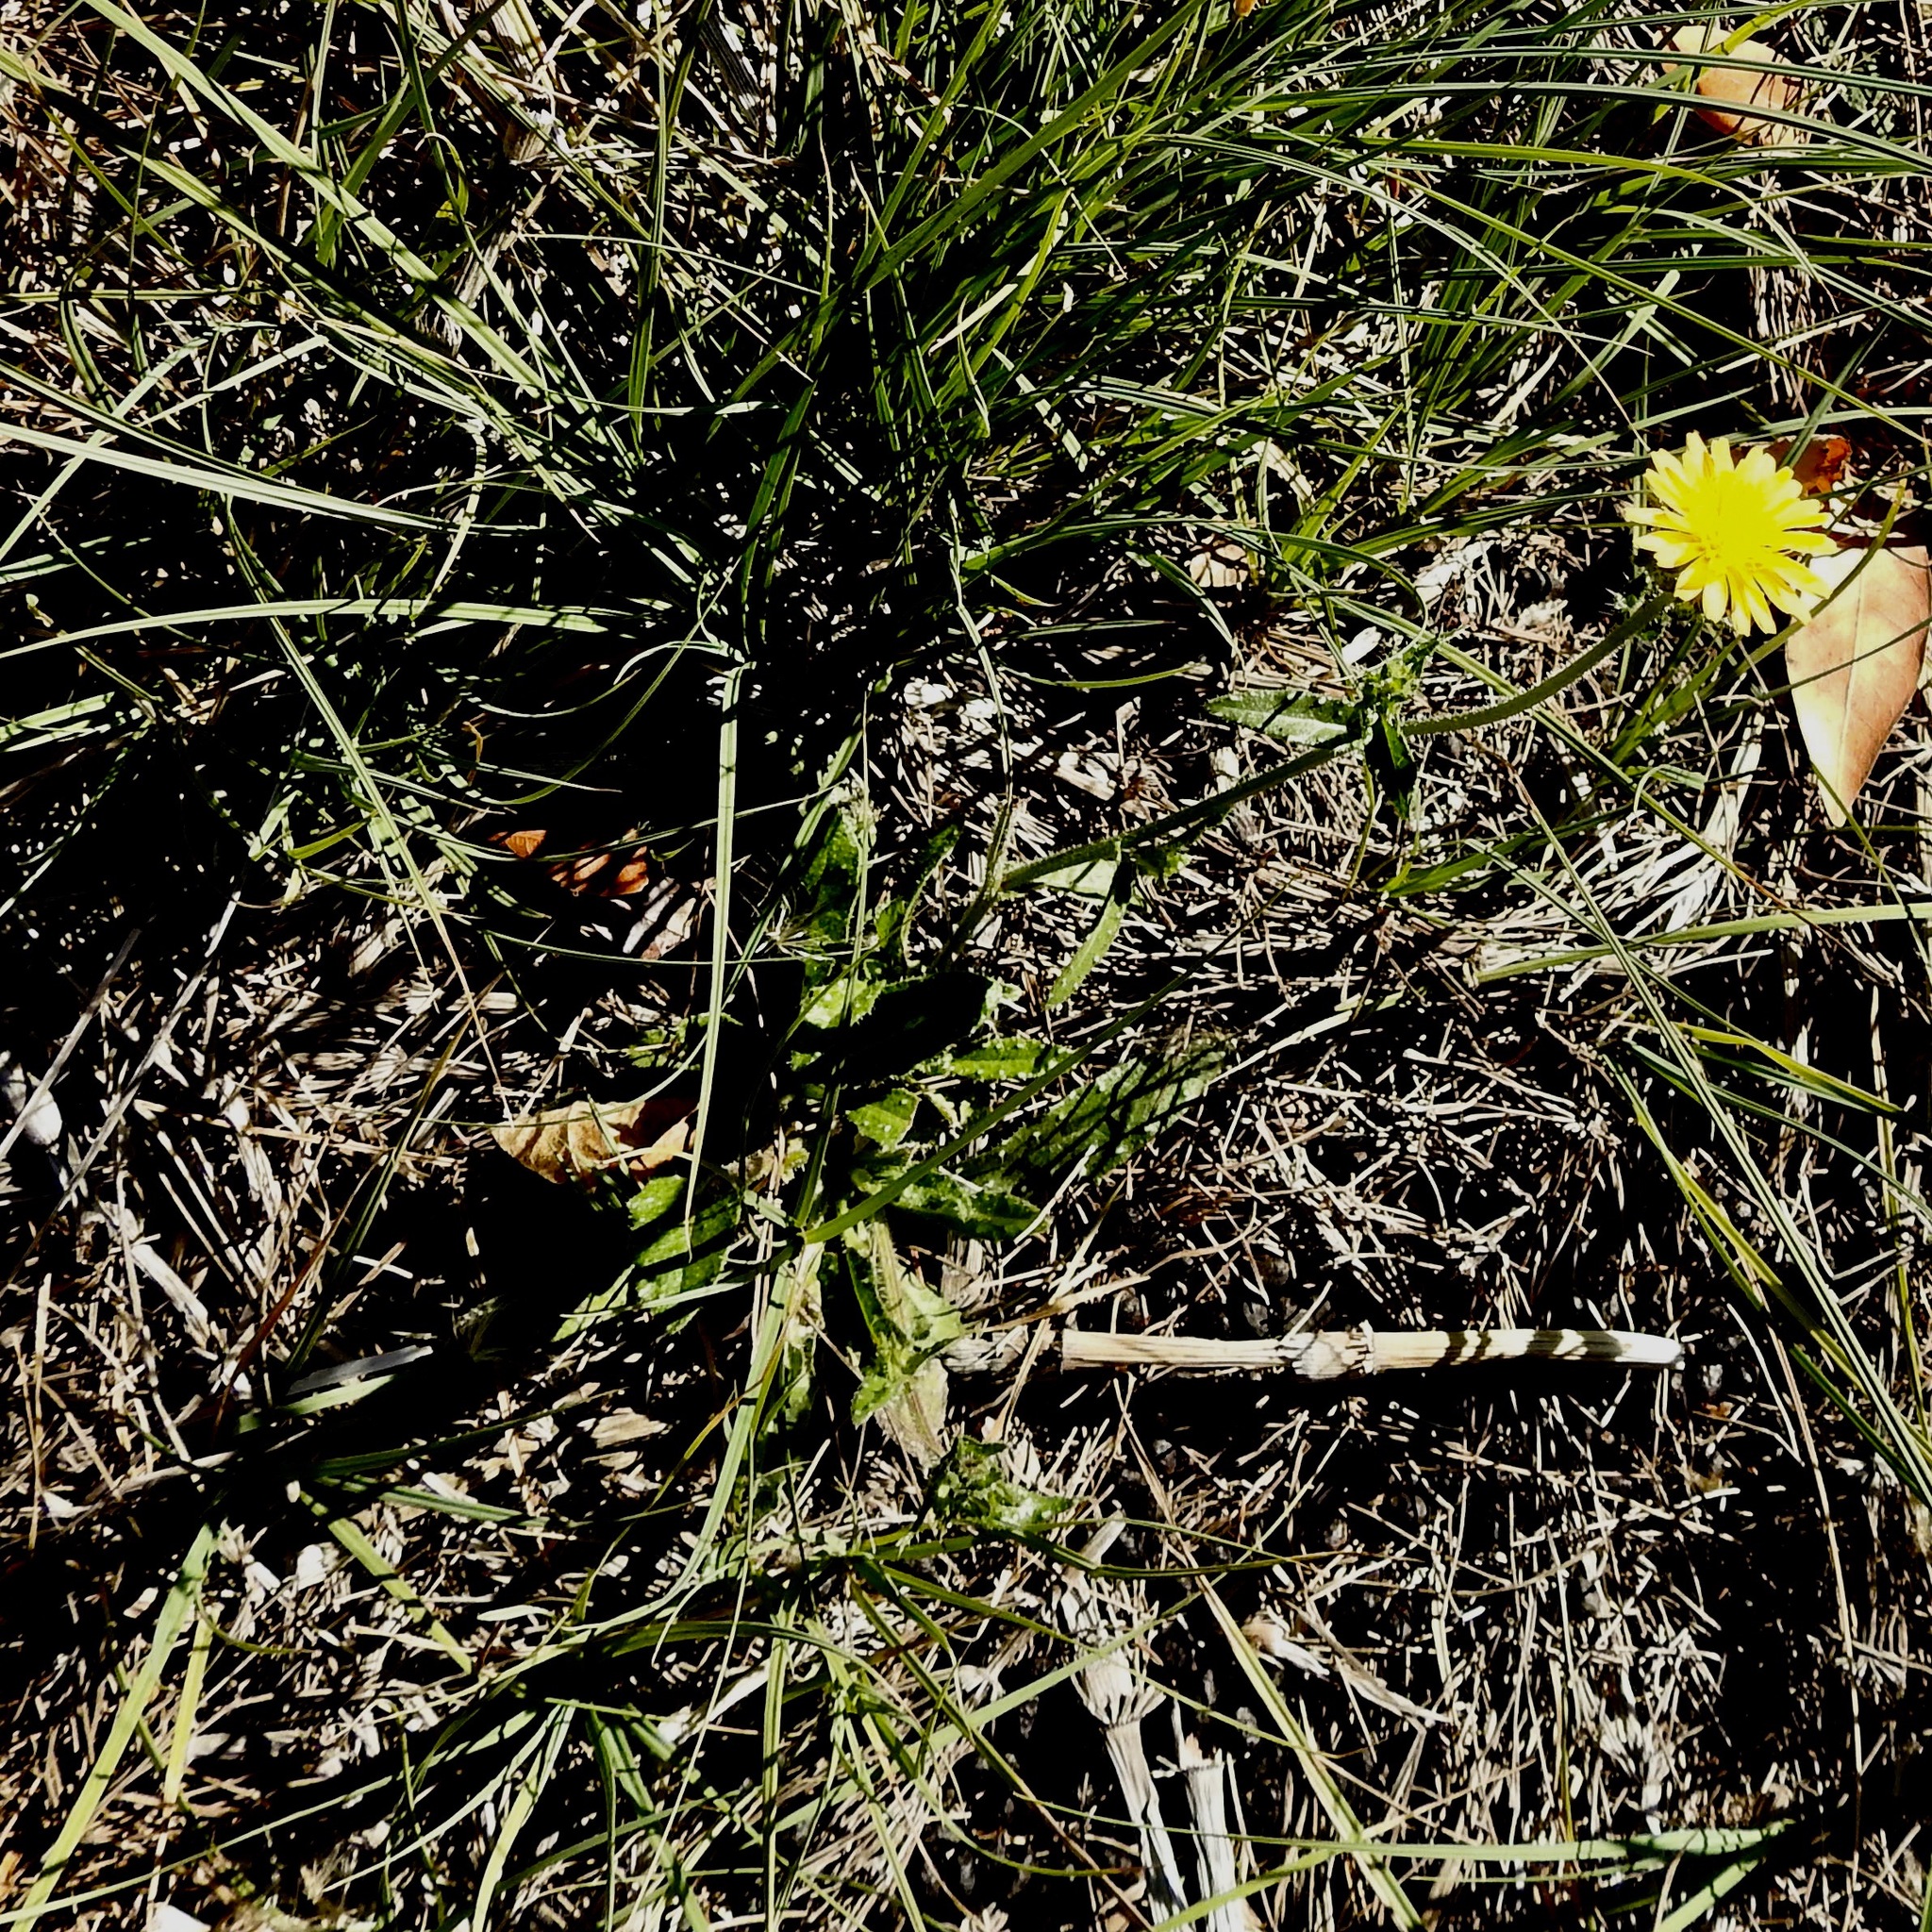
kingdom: Plantae
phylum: Tracheophyta
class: Magnoliopsida
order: Asterales
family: Asteraceae
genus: Hypochaeris
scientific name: Hypochaeris radicata
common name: Flatweed
